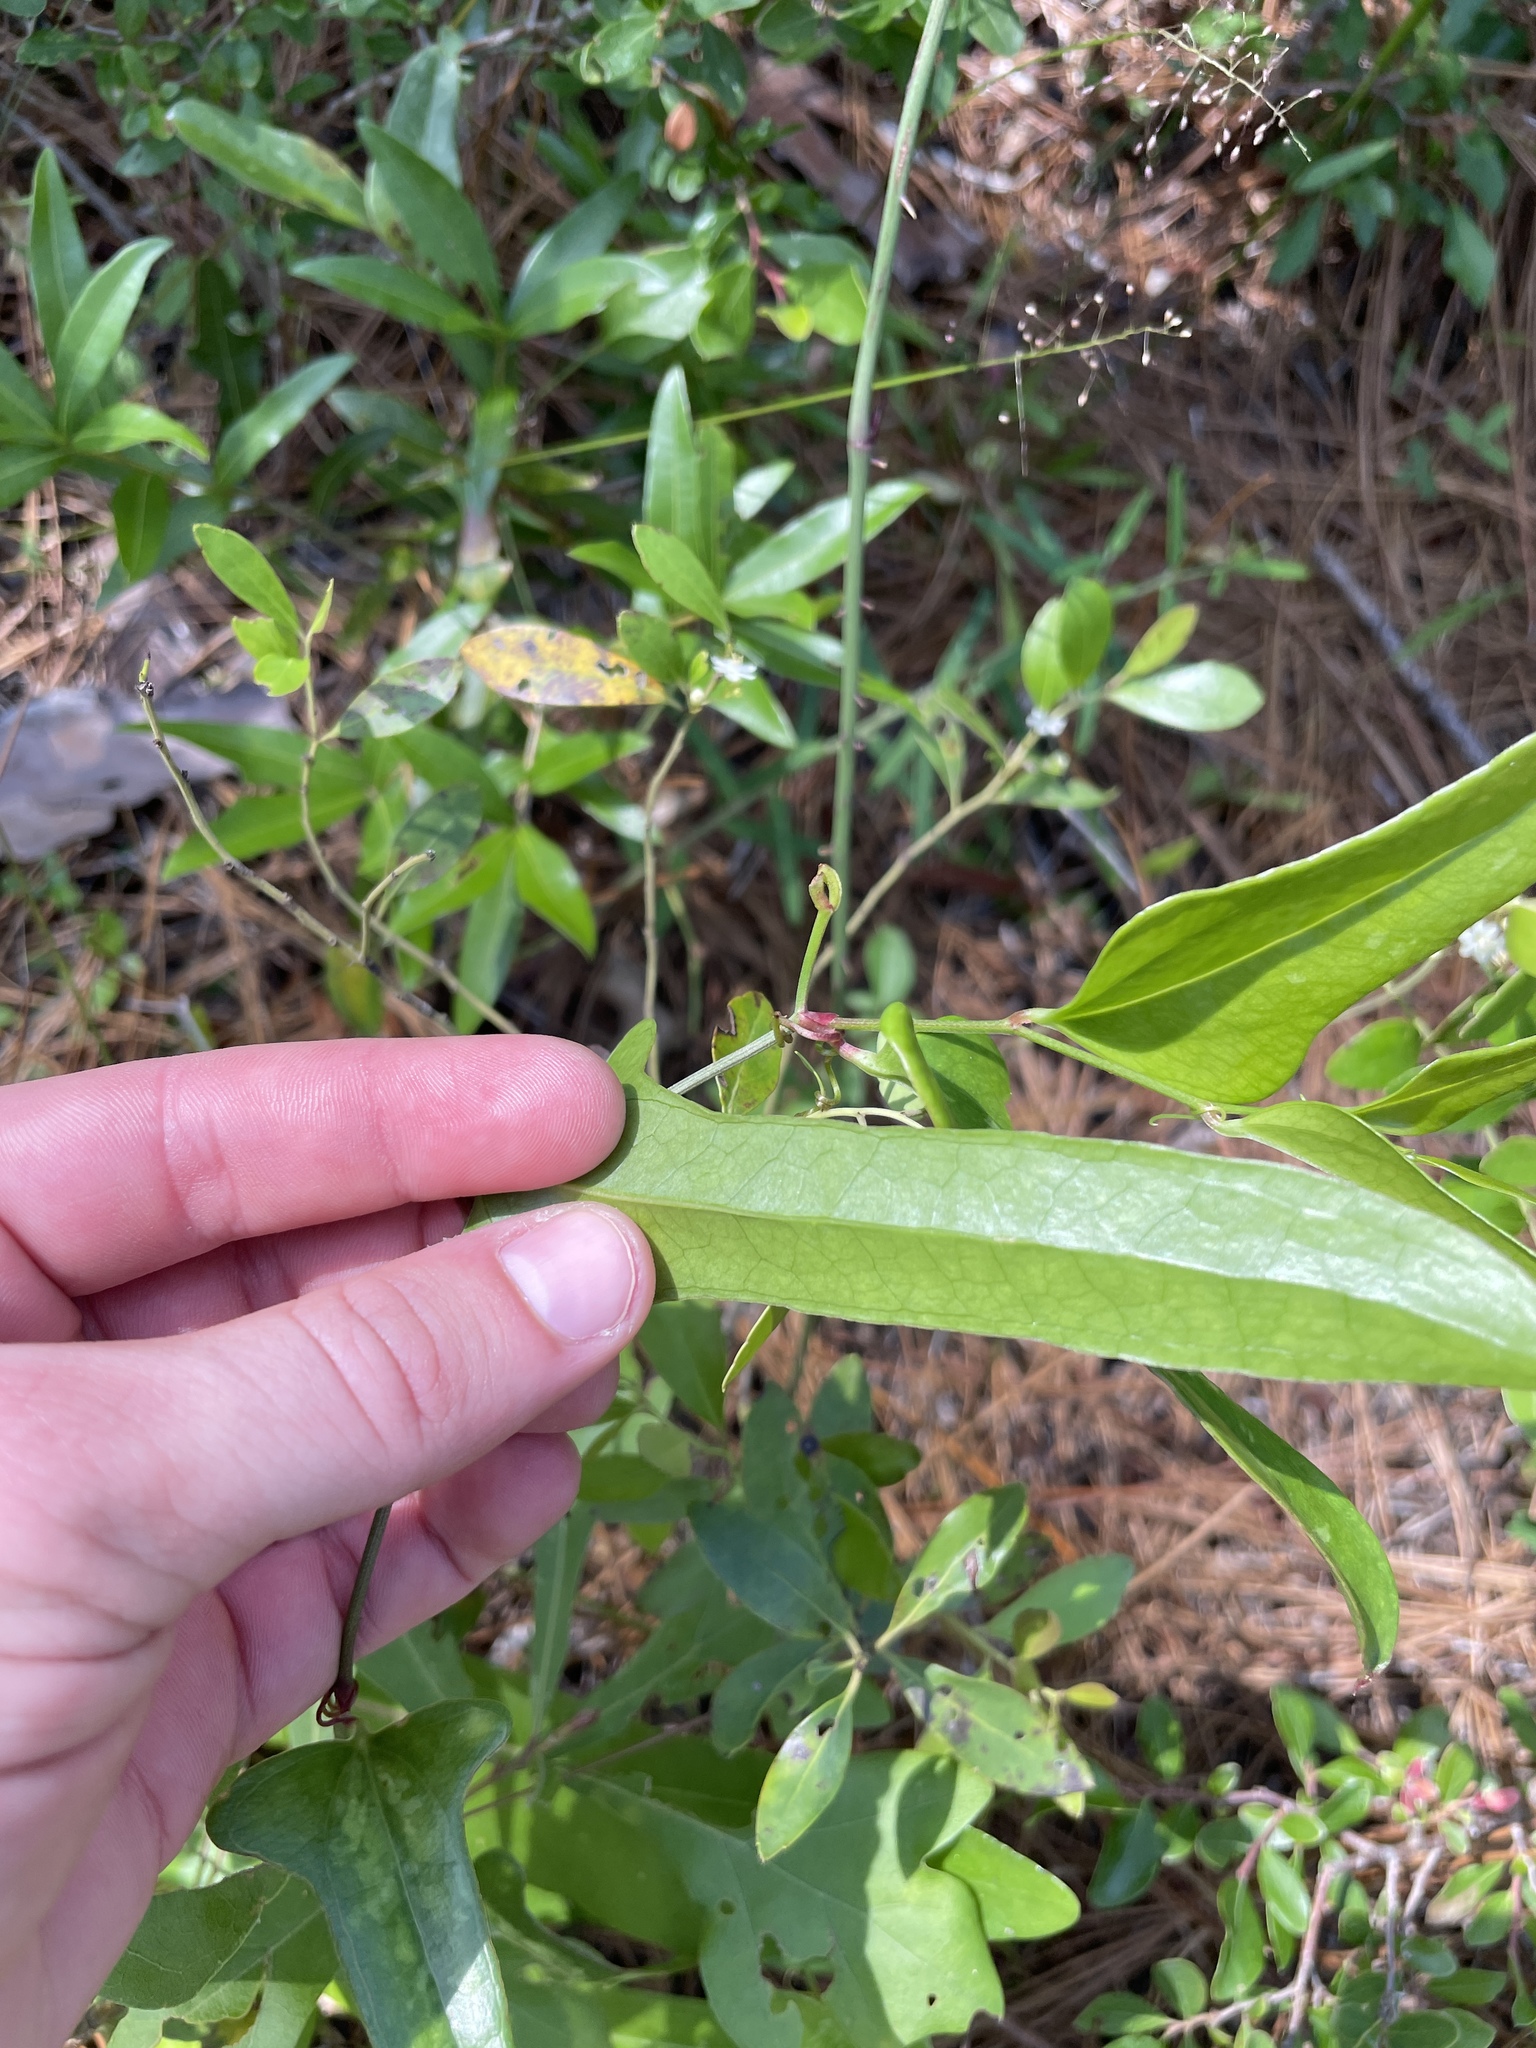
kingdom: Plantae
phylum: Tracheophyta
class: Liliopsida
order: Liliales
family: Smilacaceae
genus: Smilax
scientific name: Smilax auriculata
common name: Wild bamboo
